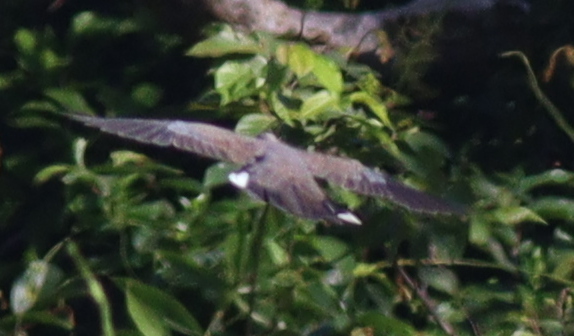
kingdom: Animalia
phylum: Chordata
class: Aves
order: Columbiformes
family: Columbidae
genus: Spilopelia
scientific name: Spilopelia chinensis
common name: Spotted dove
